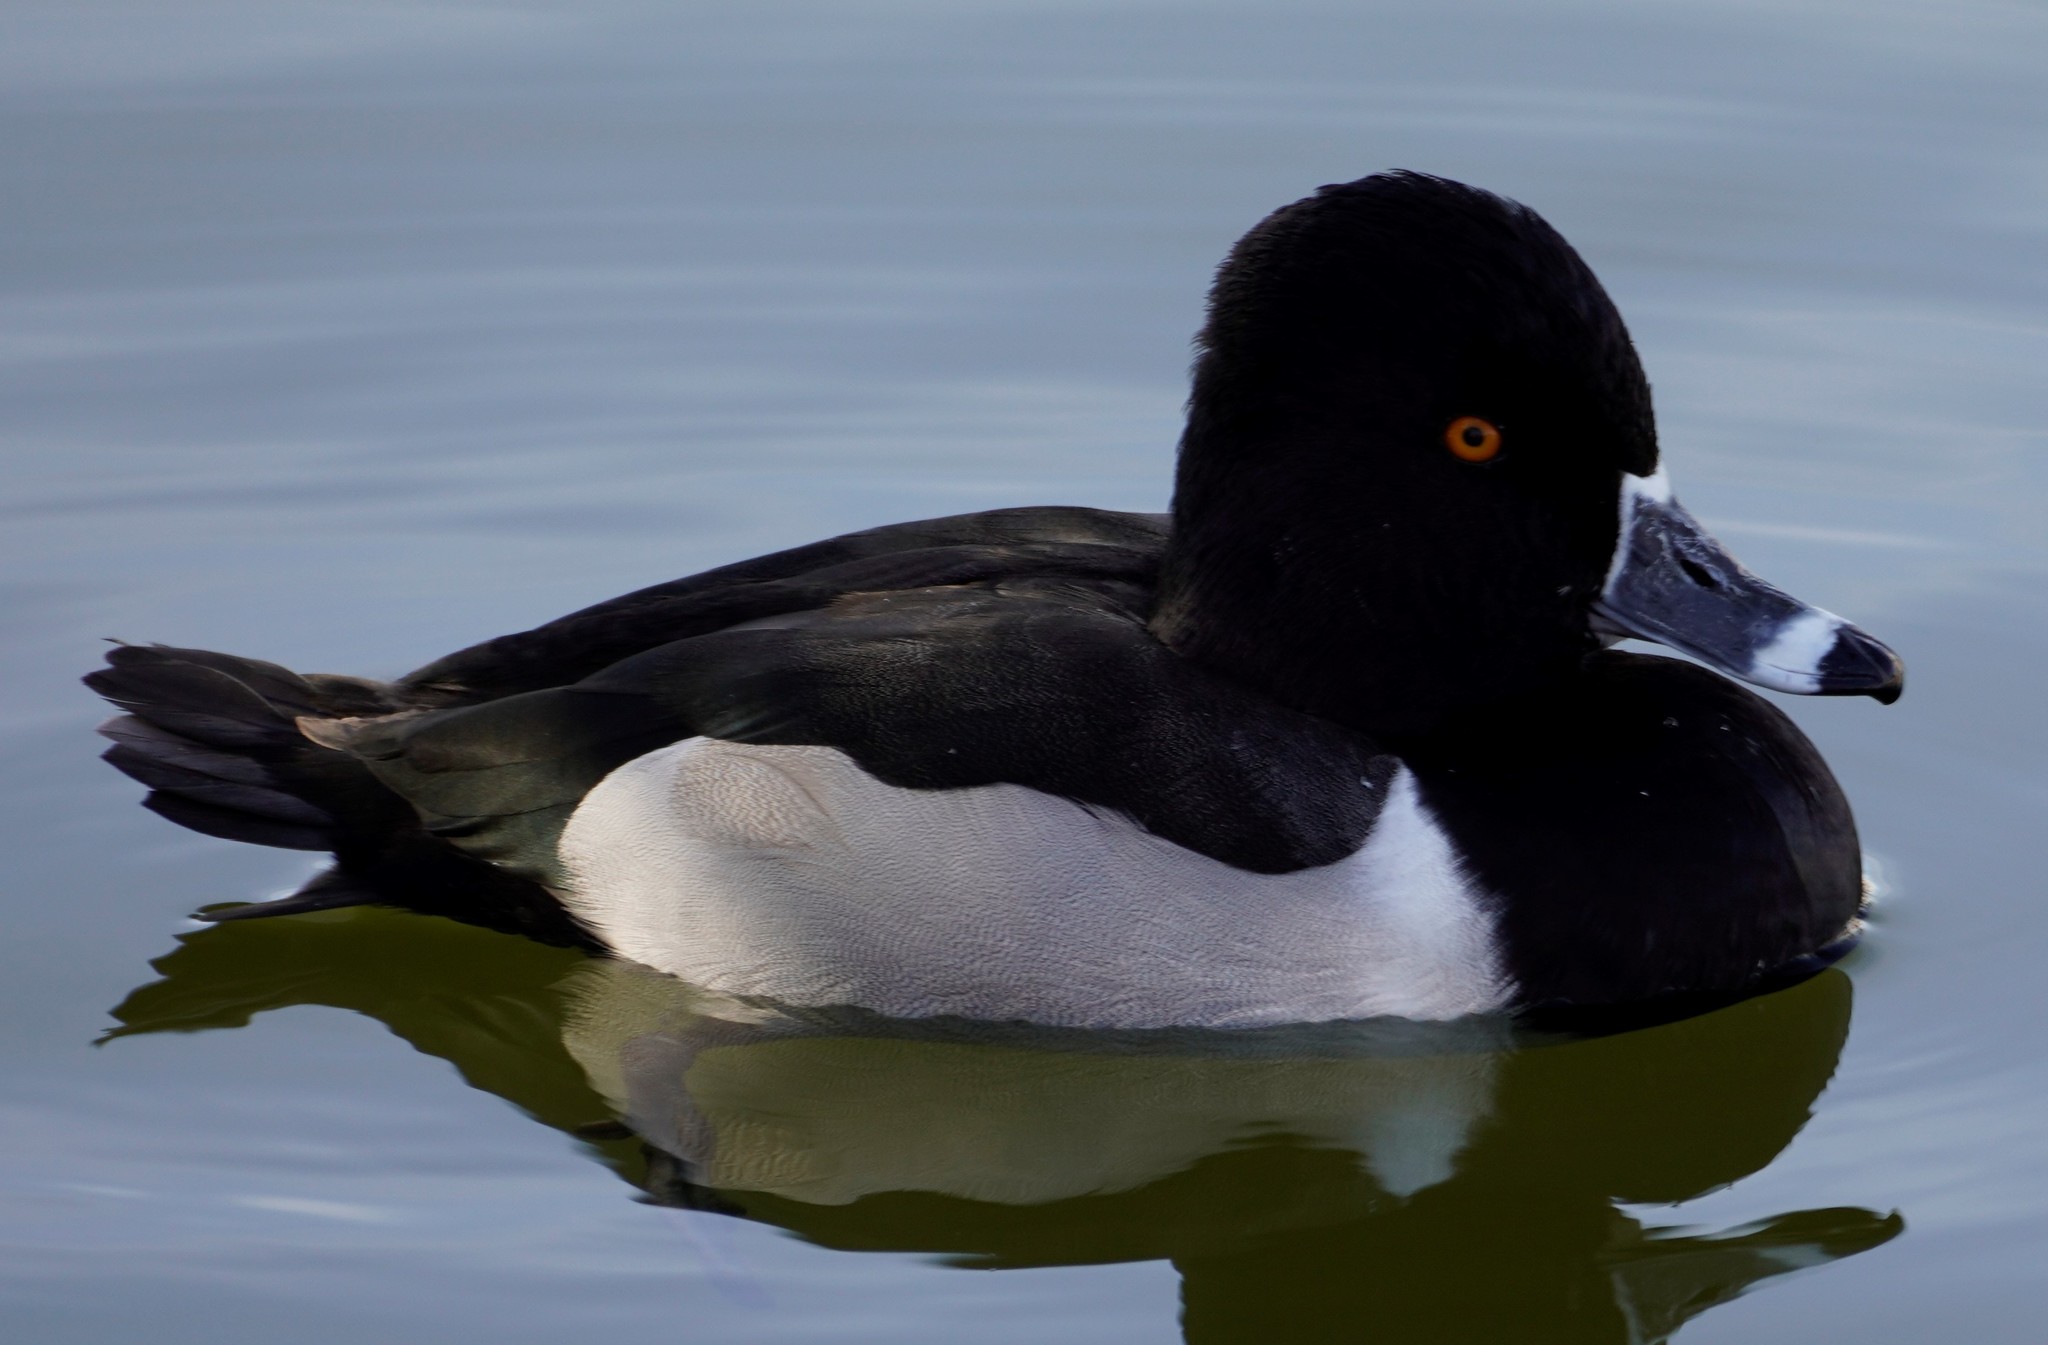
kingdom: Animalia
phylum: Chordata
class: Aves
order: Anseriformes
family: Anatidae
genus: Aythya
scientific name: Aythya collaris
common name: Ring-necked duck
